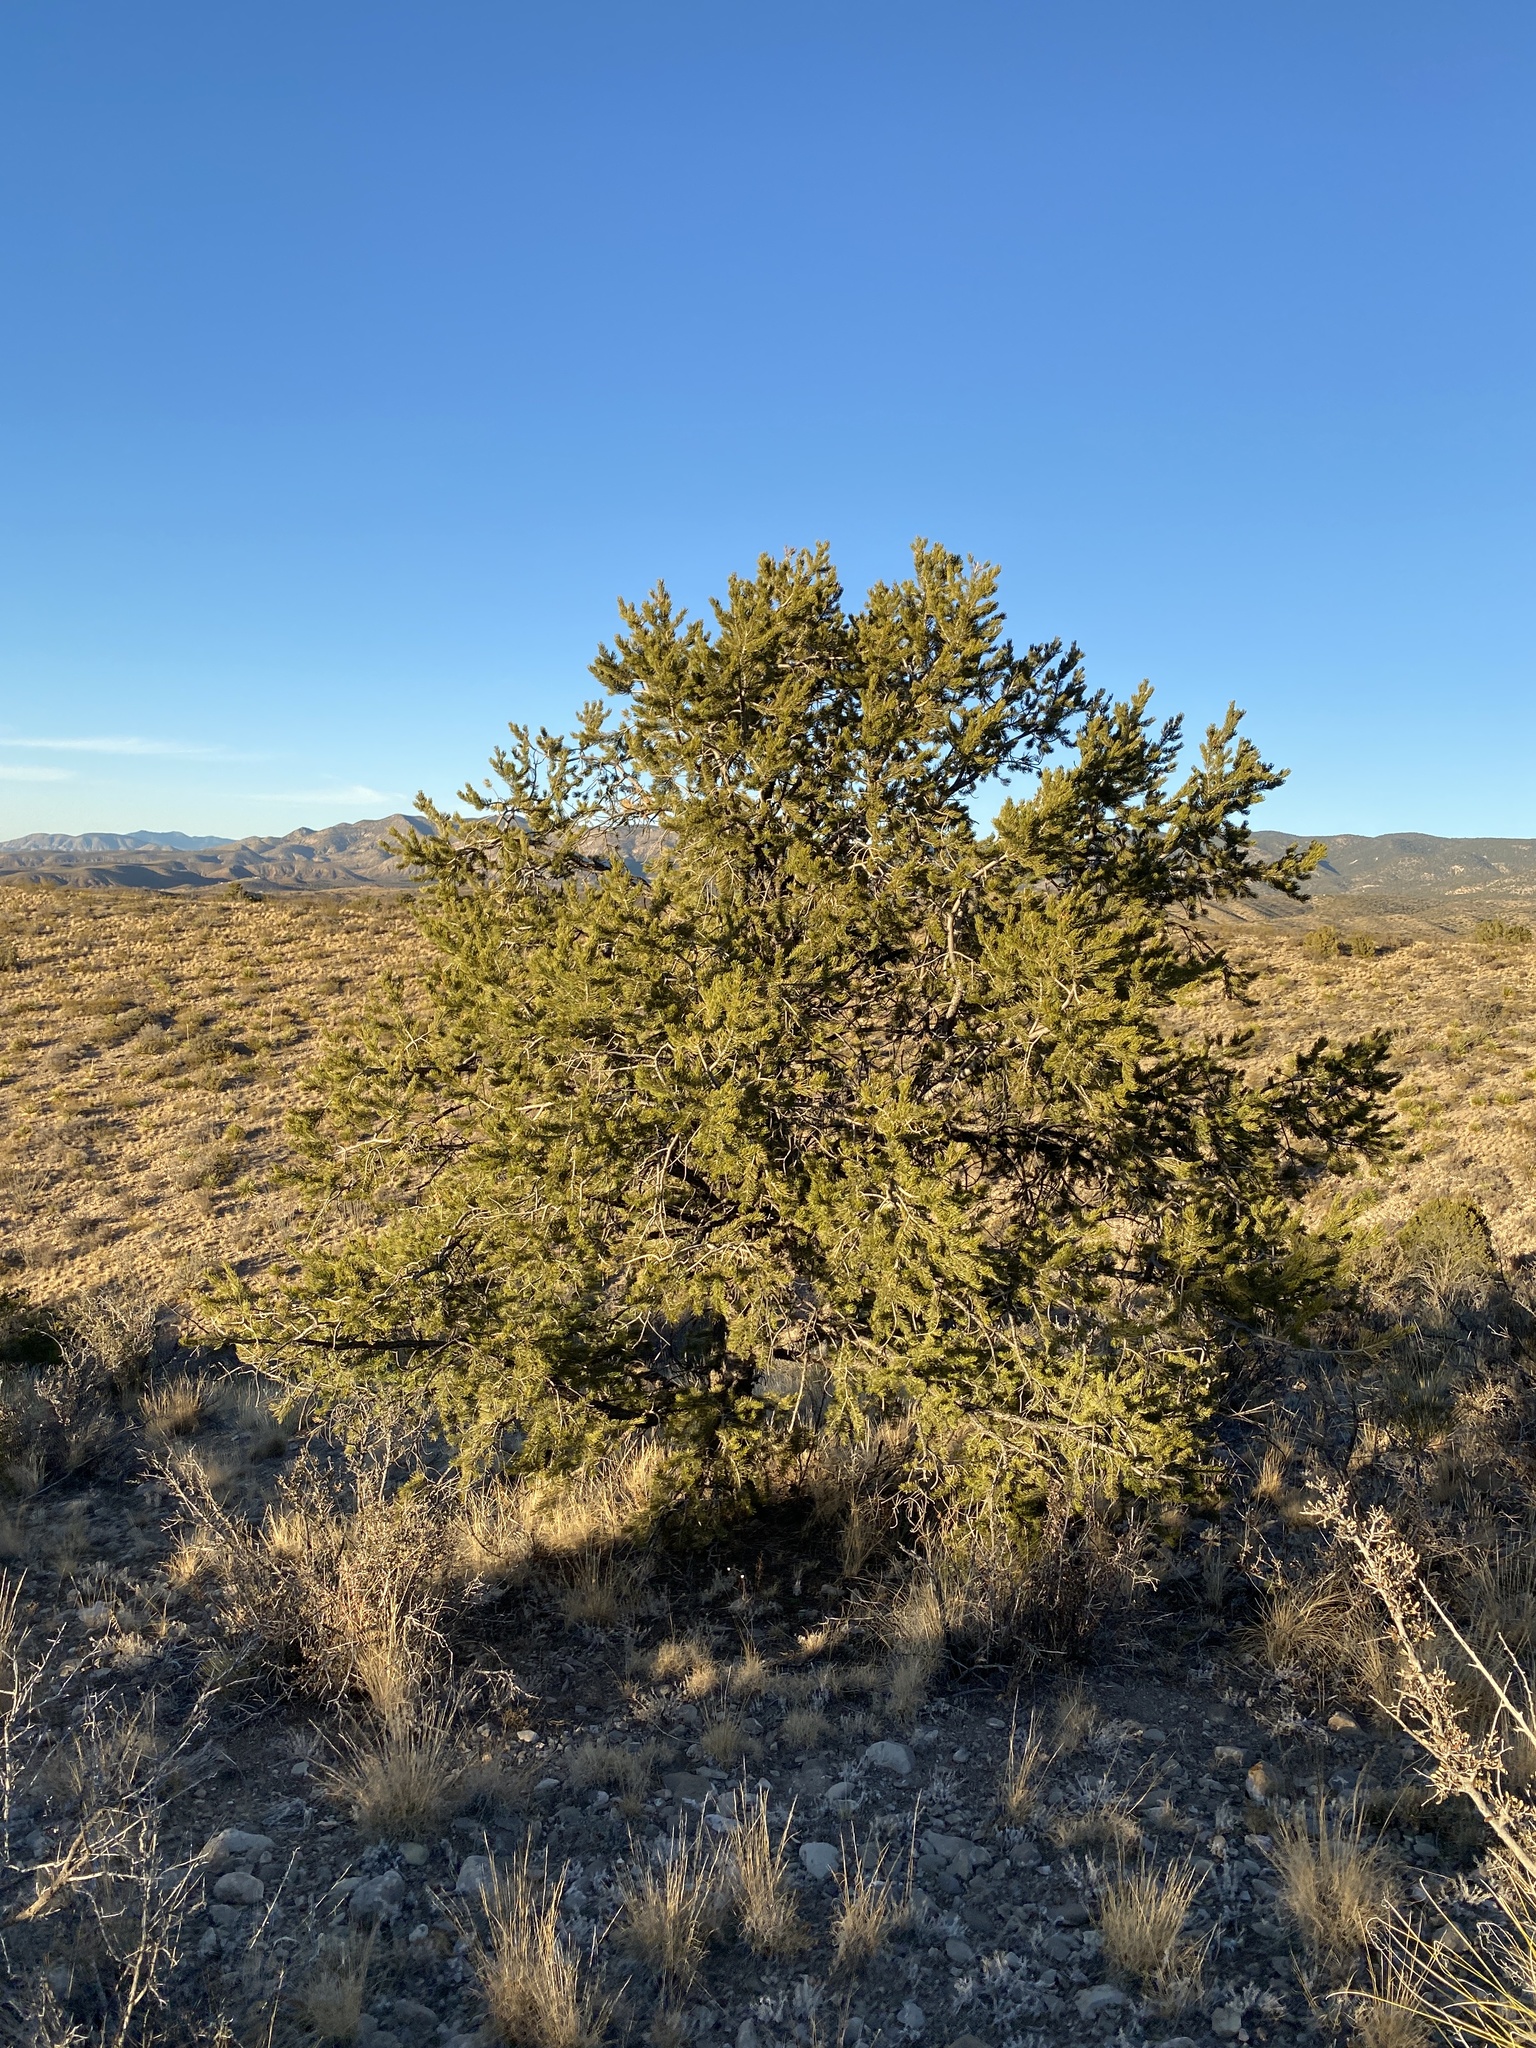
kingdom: Plantae
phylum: Tracheophyta
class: Pinopsida
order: Pinales
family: Pinaceae
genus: Pinus
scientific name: Pinus edulis
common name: Colorado pinyon
